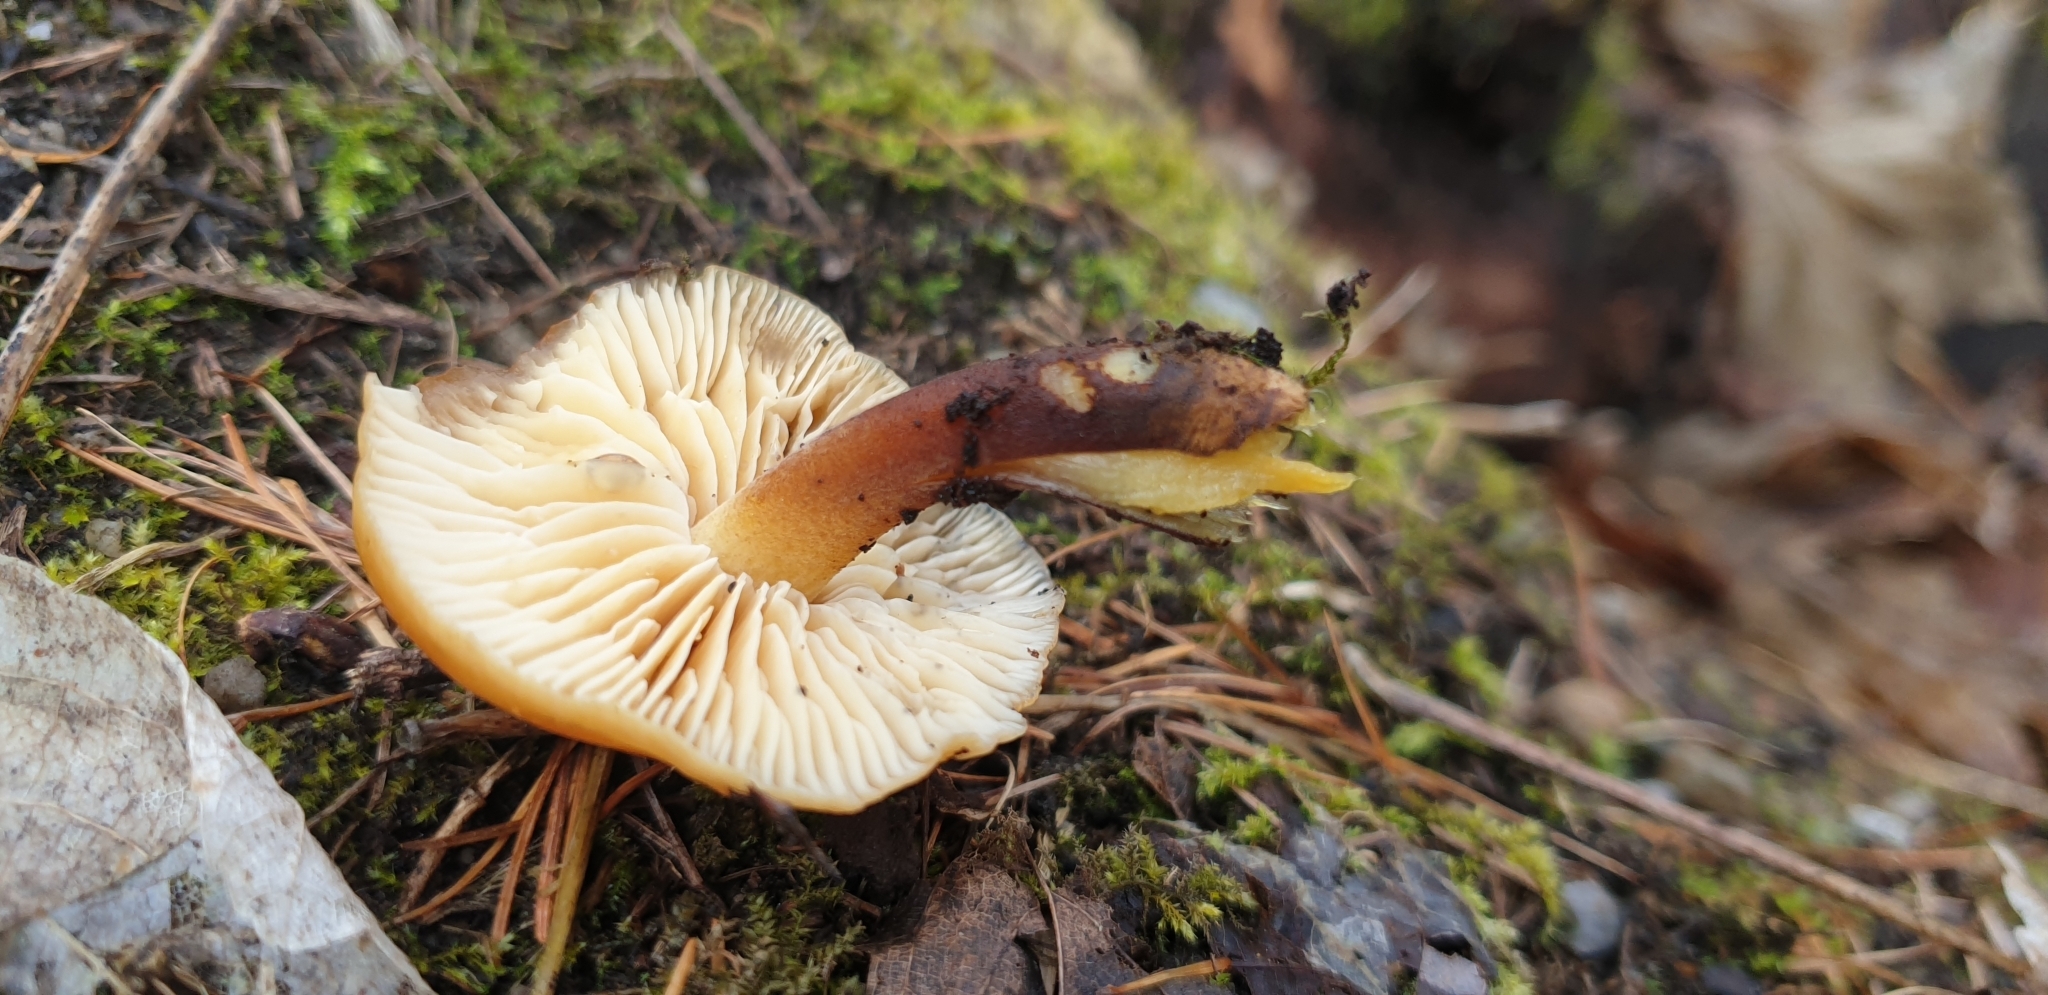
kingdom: Fungi
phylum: Basidiomycota
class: Agaricomycetes
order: Agaricales
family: Physalacriaceae
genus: Flammulina
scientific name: Flammulina velutipes
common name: Velvet shank
